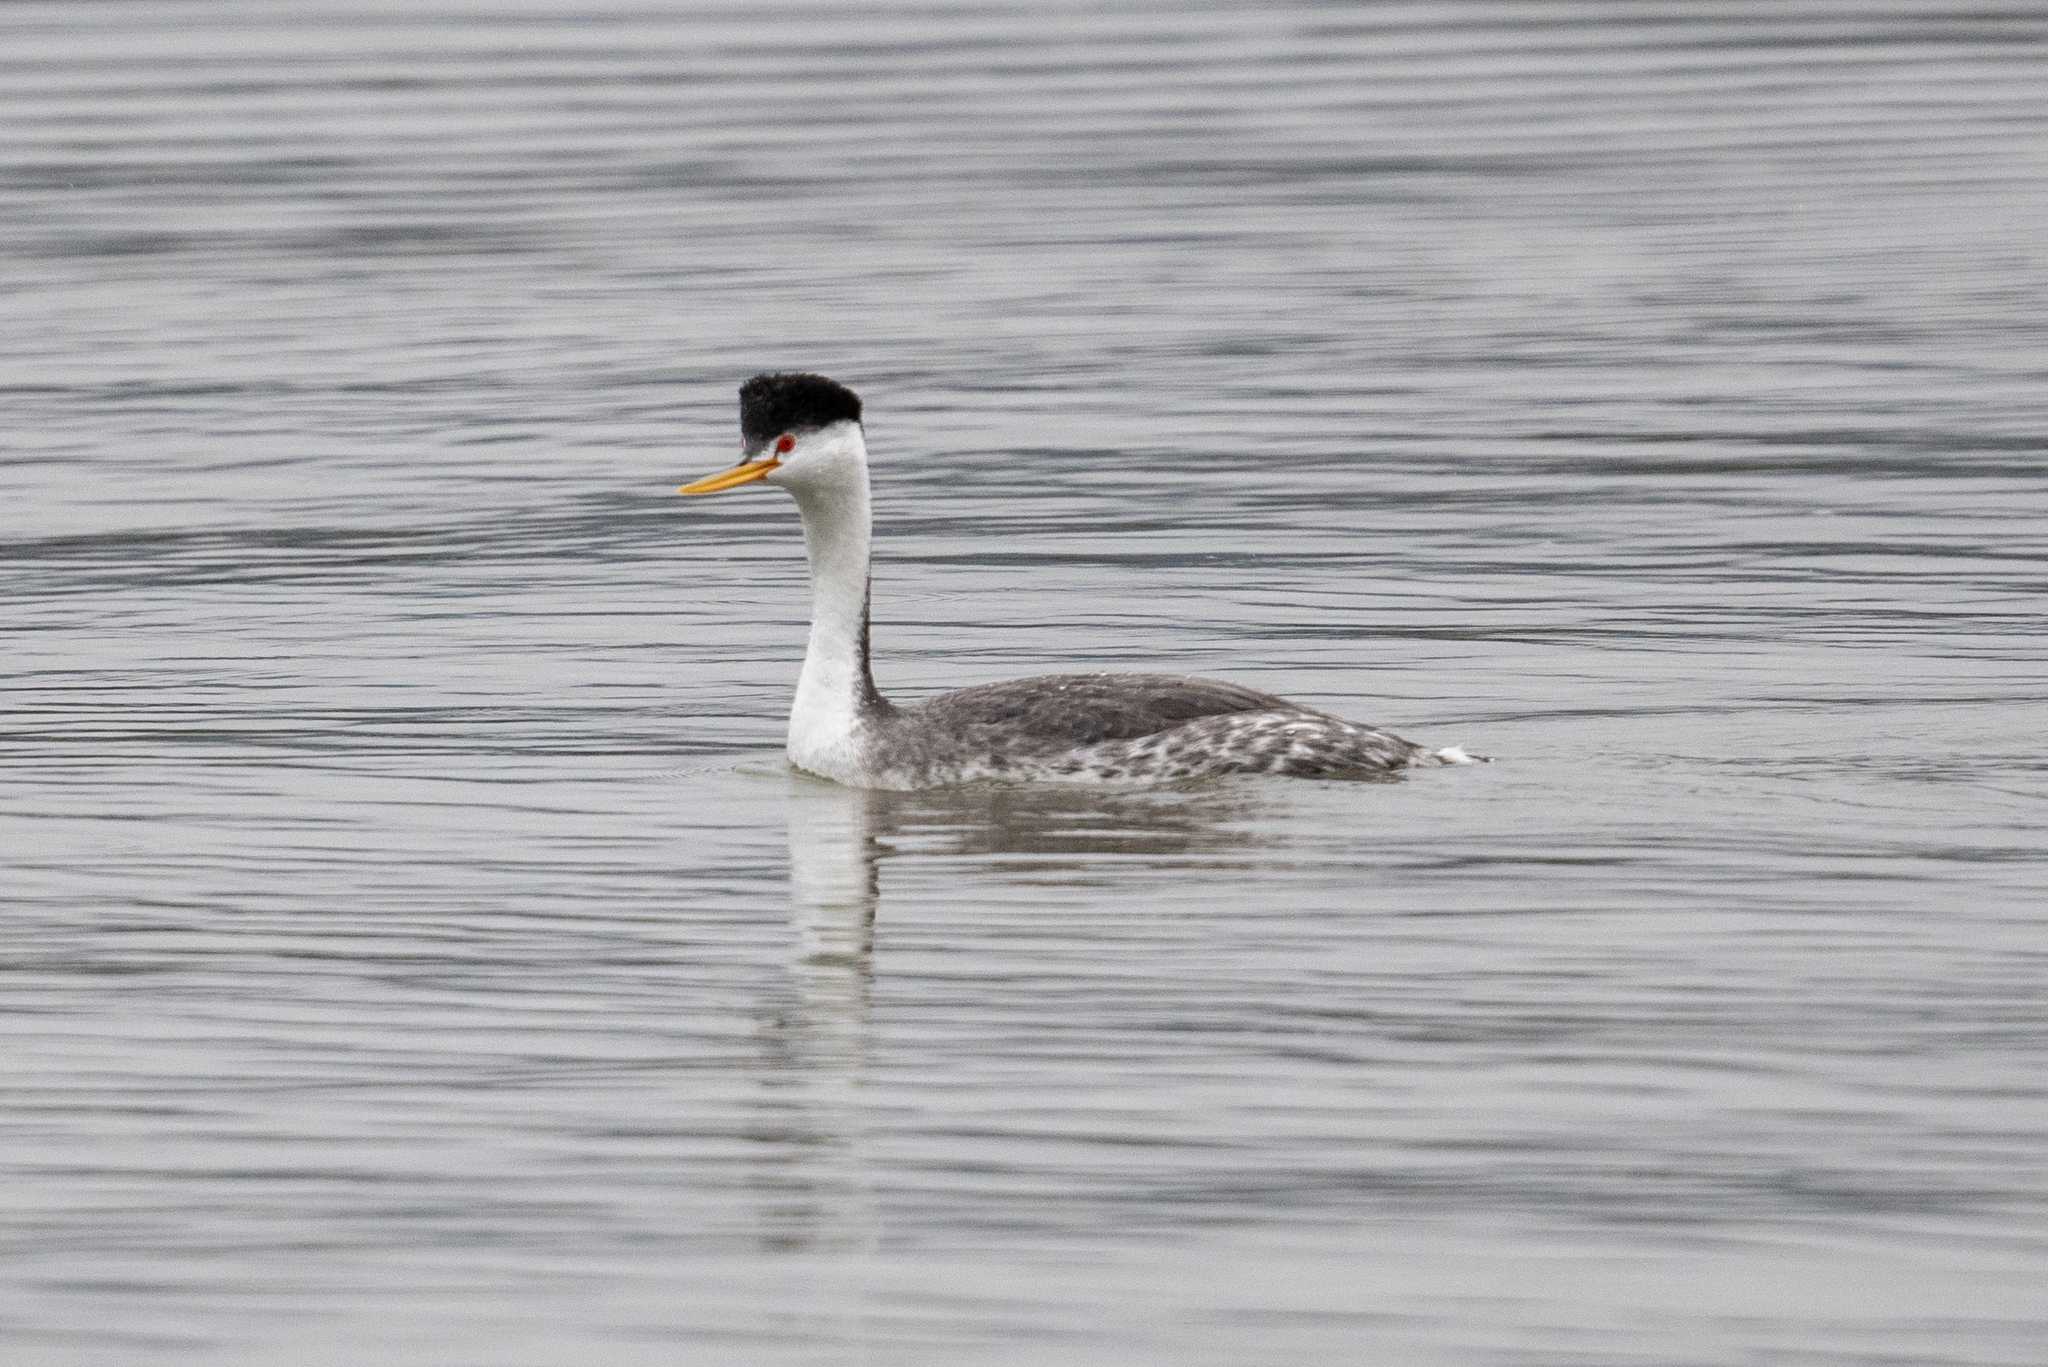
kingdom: Animalia
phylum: Chordata
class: Aves
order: Podicipediformes
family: Podicipedidae
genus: Aechmophorus
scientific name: Aechmophorus clarkii
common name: Clark's grebe
